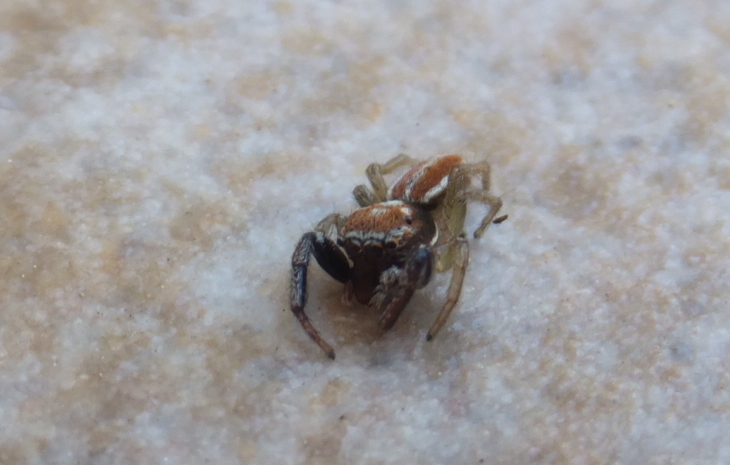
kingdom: Animalia
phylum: Arthropoda
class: Arachnida
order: Araneae
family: Salticidae
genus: Icius
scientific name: Icius hamatus
